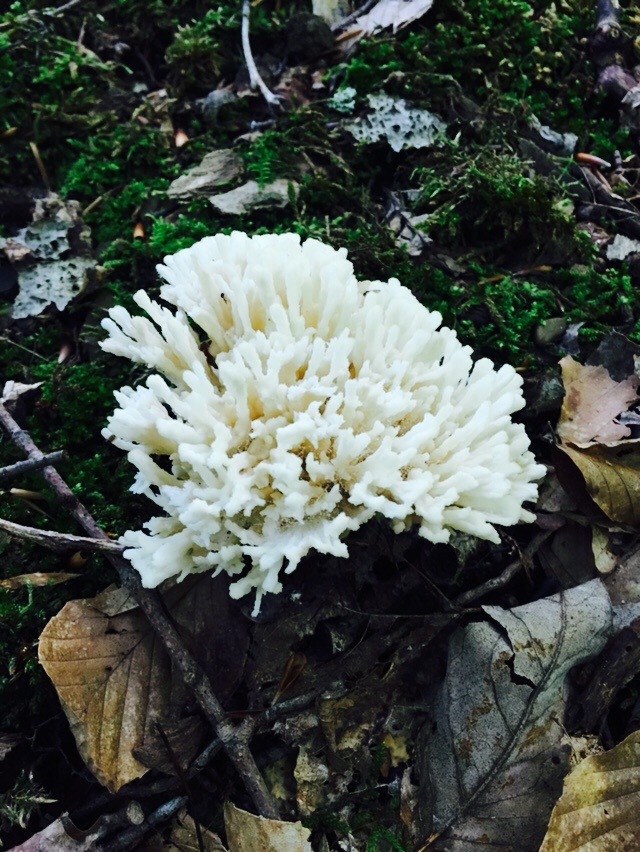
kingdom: Fungi
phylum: Basidiomycota
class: Agaricomycetes
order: Sebacinales
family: Sebacinaceae
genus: Sebacina
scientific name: Sebacina schweinitzii
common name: Jellied false coral fungus
